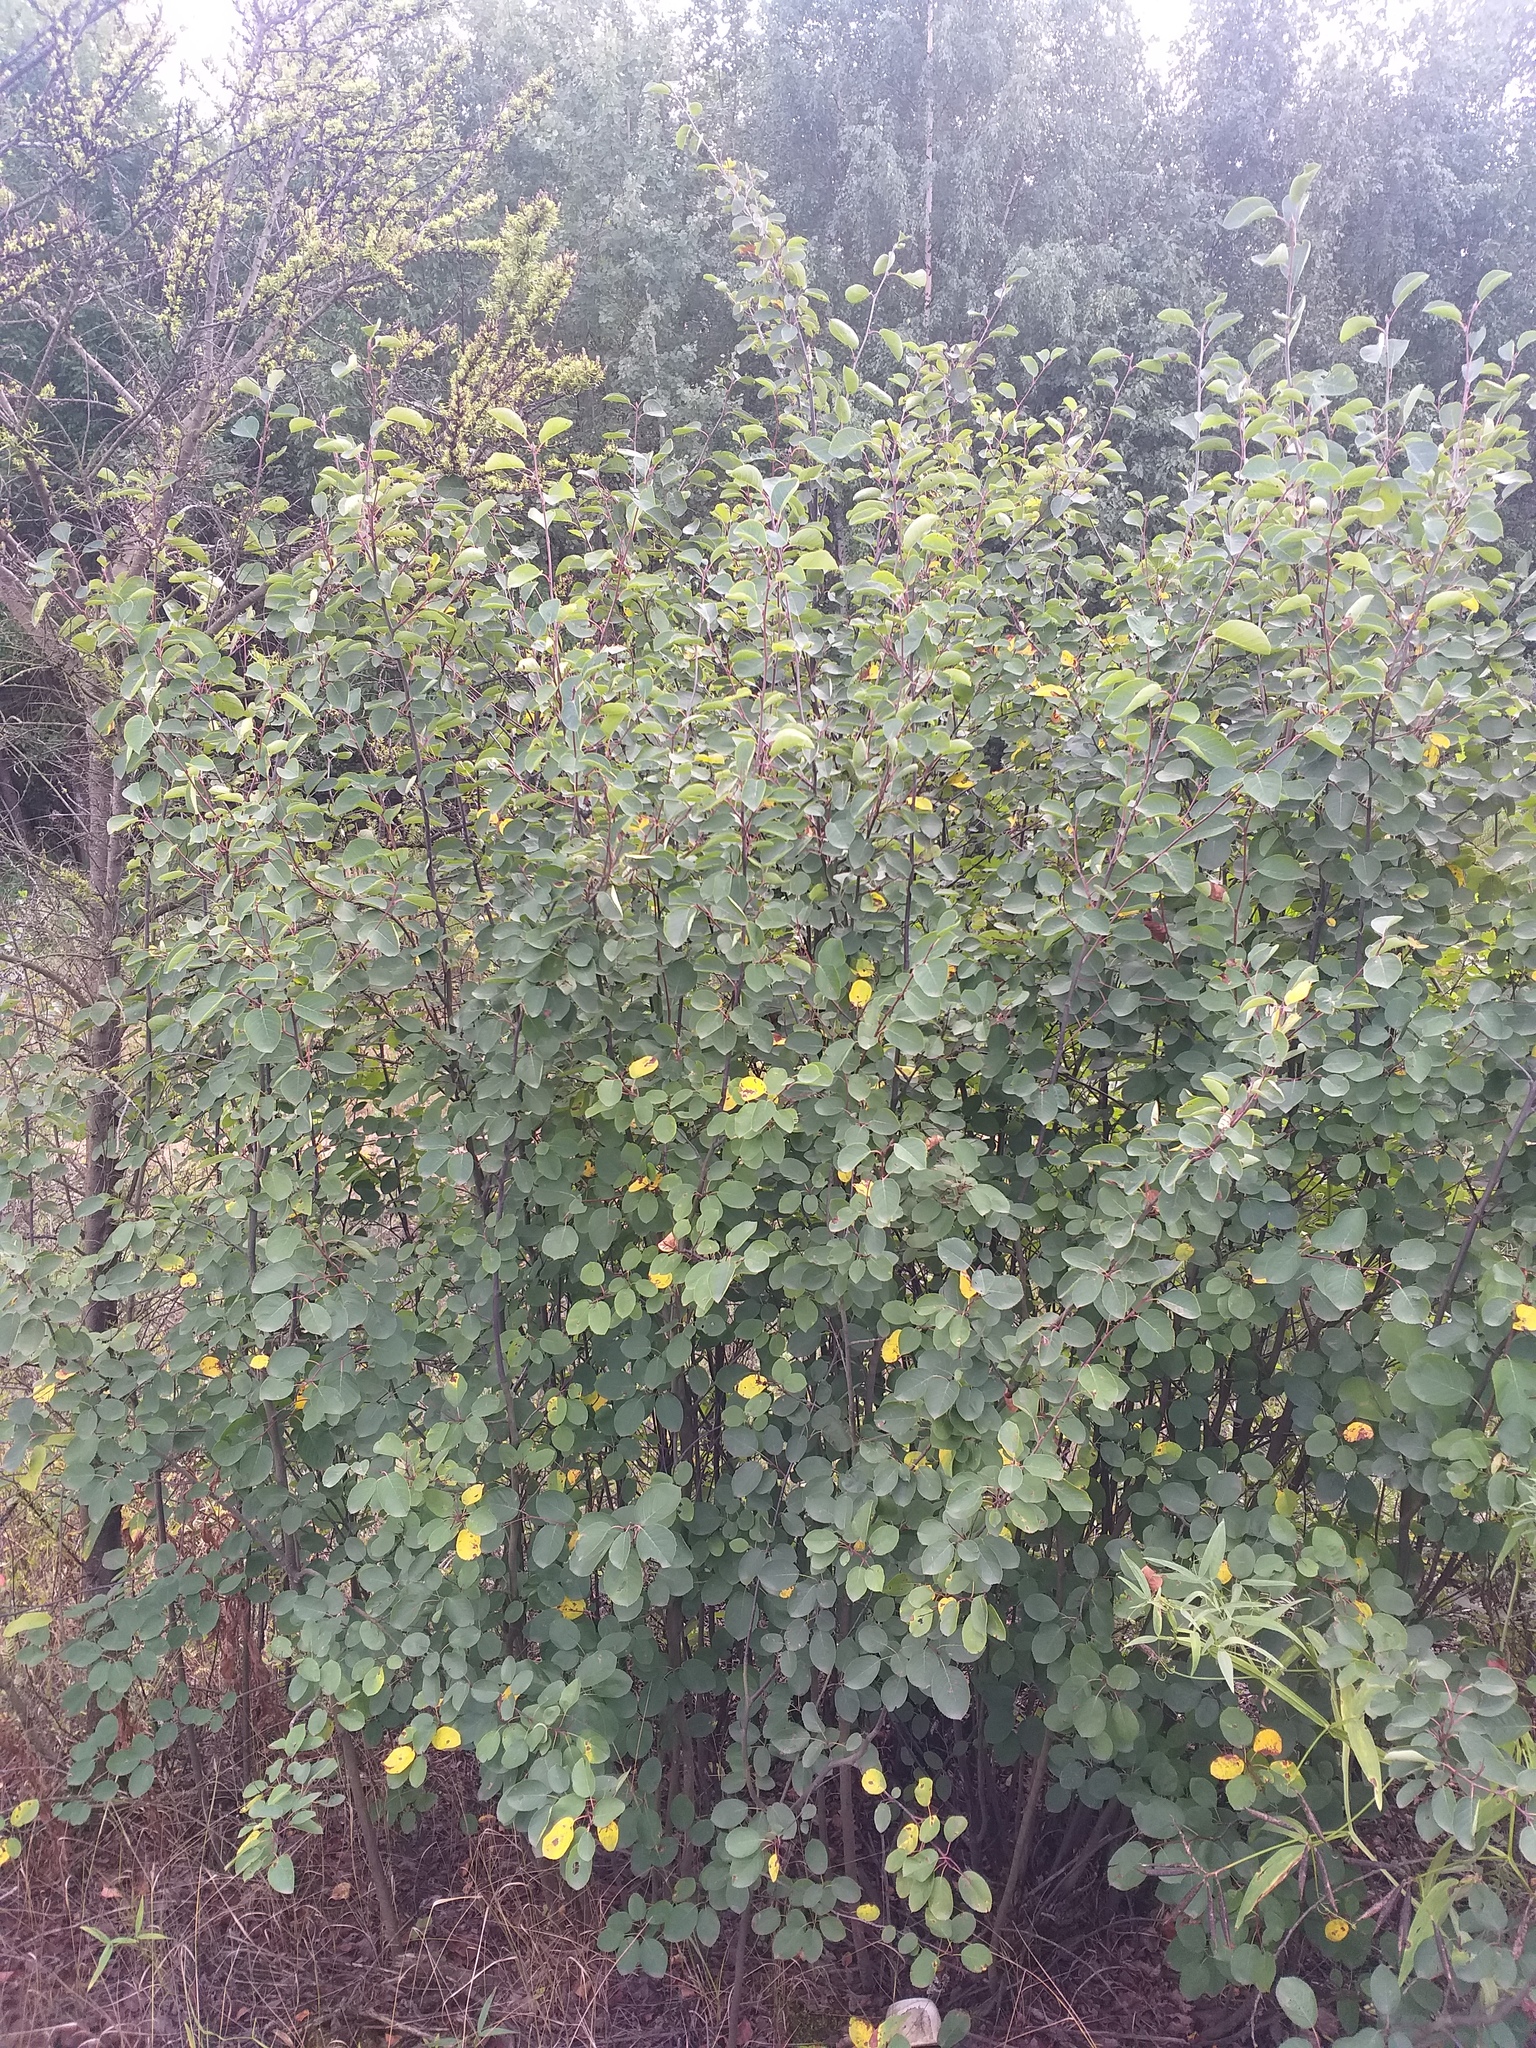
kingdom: Plantae
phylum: Tracheophyta
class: Magnoliopsida
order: Rosales
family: Rosaceae
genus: Amelanchier
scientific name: Amelanchier
